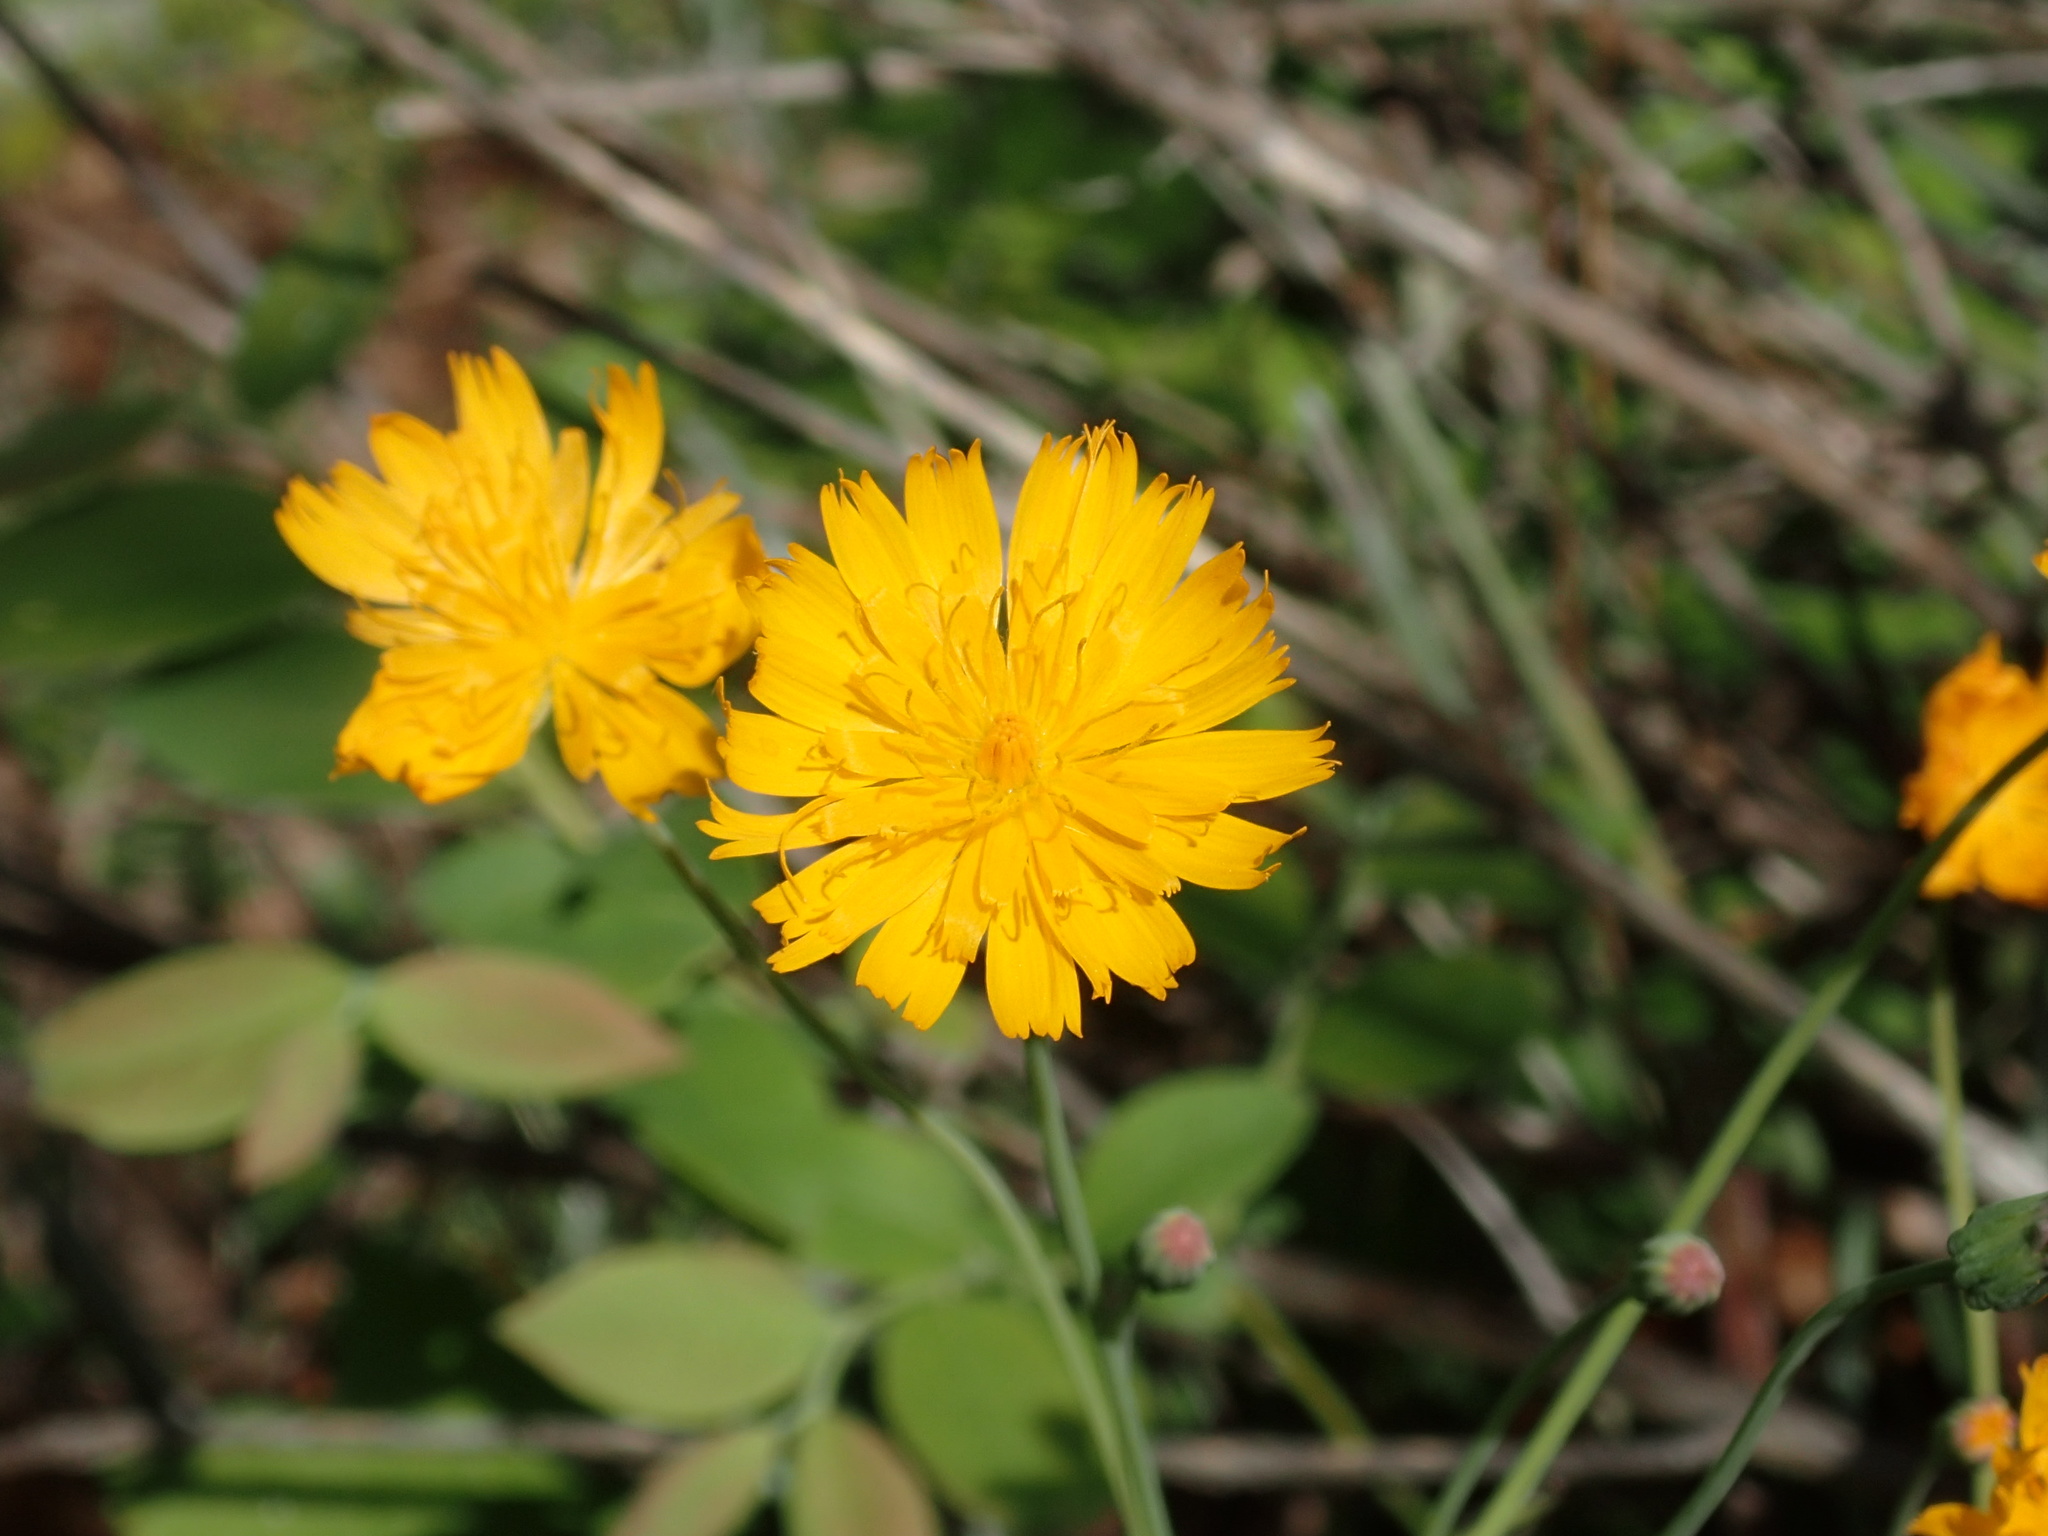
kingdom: Plantae
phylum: Tracheophyta
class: Magnoliopsida
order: Asterales
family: Asteraceae
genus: Krigia
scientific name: Krigia biflora
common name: Orange dwarf-dandelion
